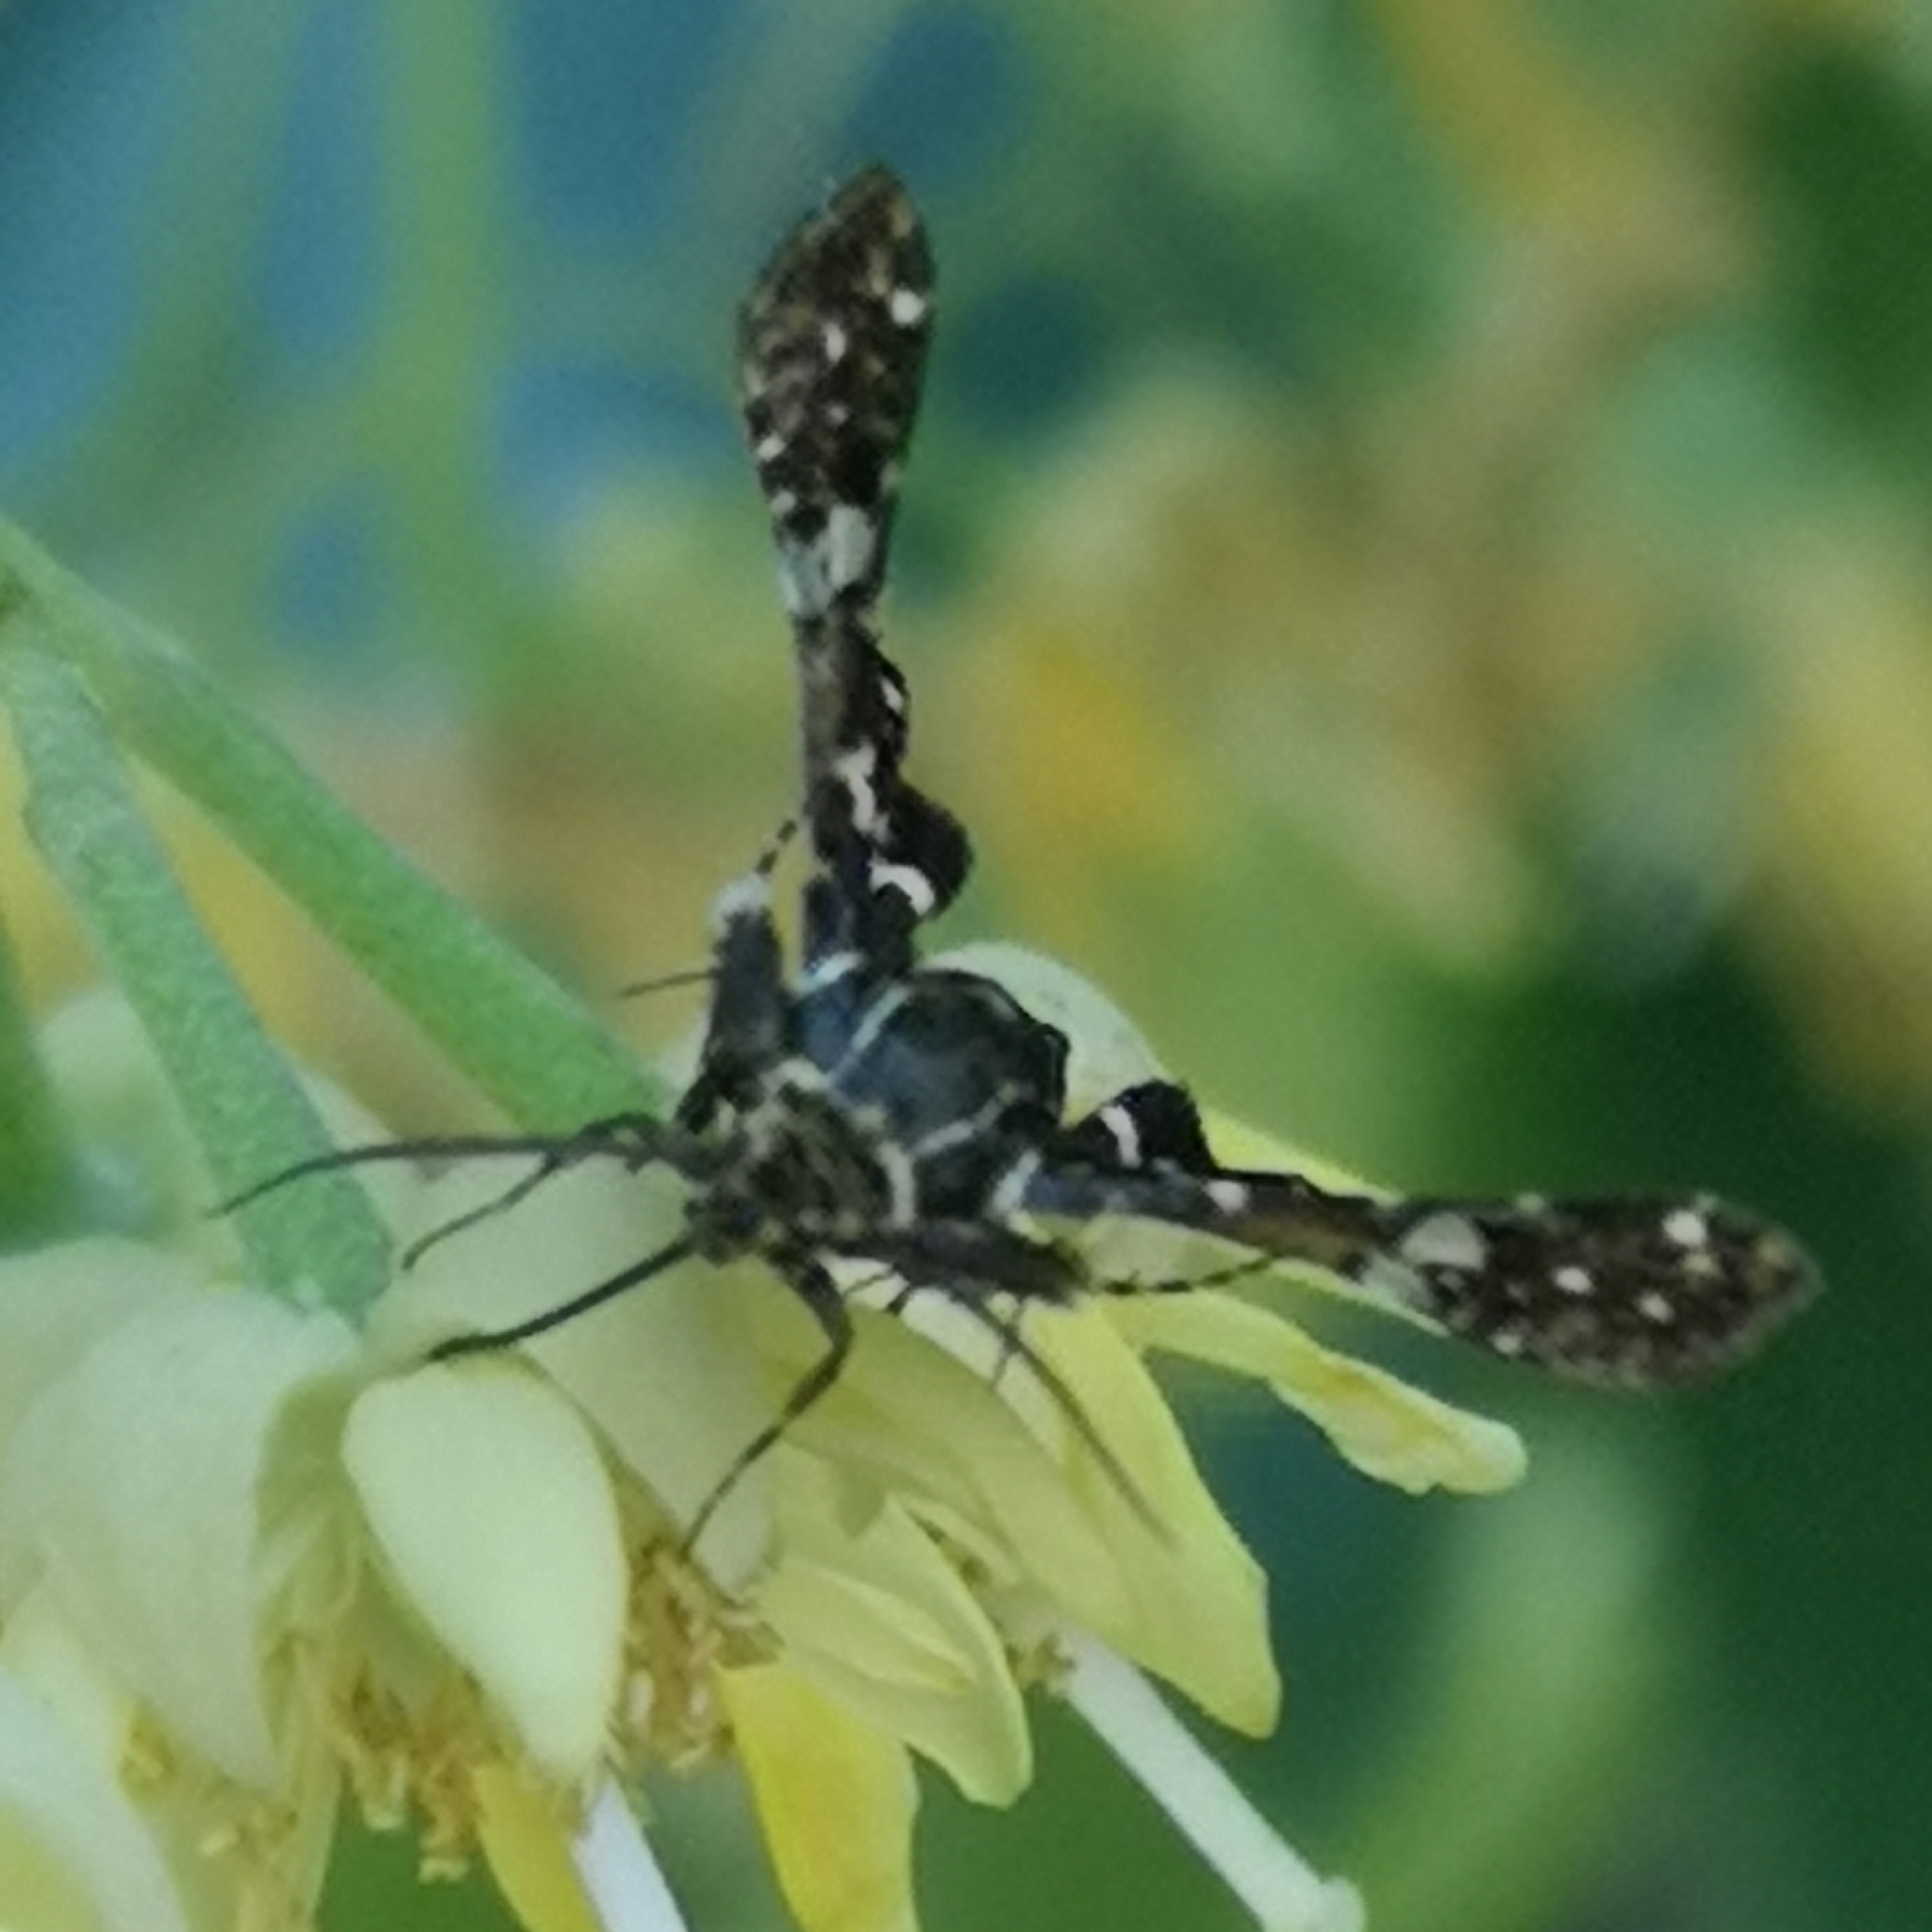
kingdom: Animalia
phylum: Arthropoda
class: Insecta
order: Lepidoptera
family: Thyrididae
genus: Thyris
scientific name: Thyris fenestrella
